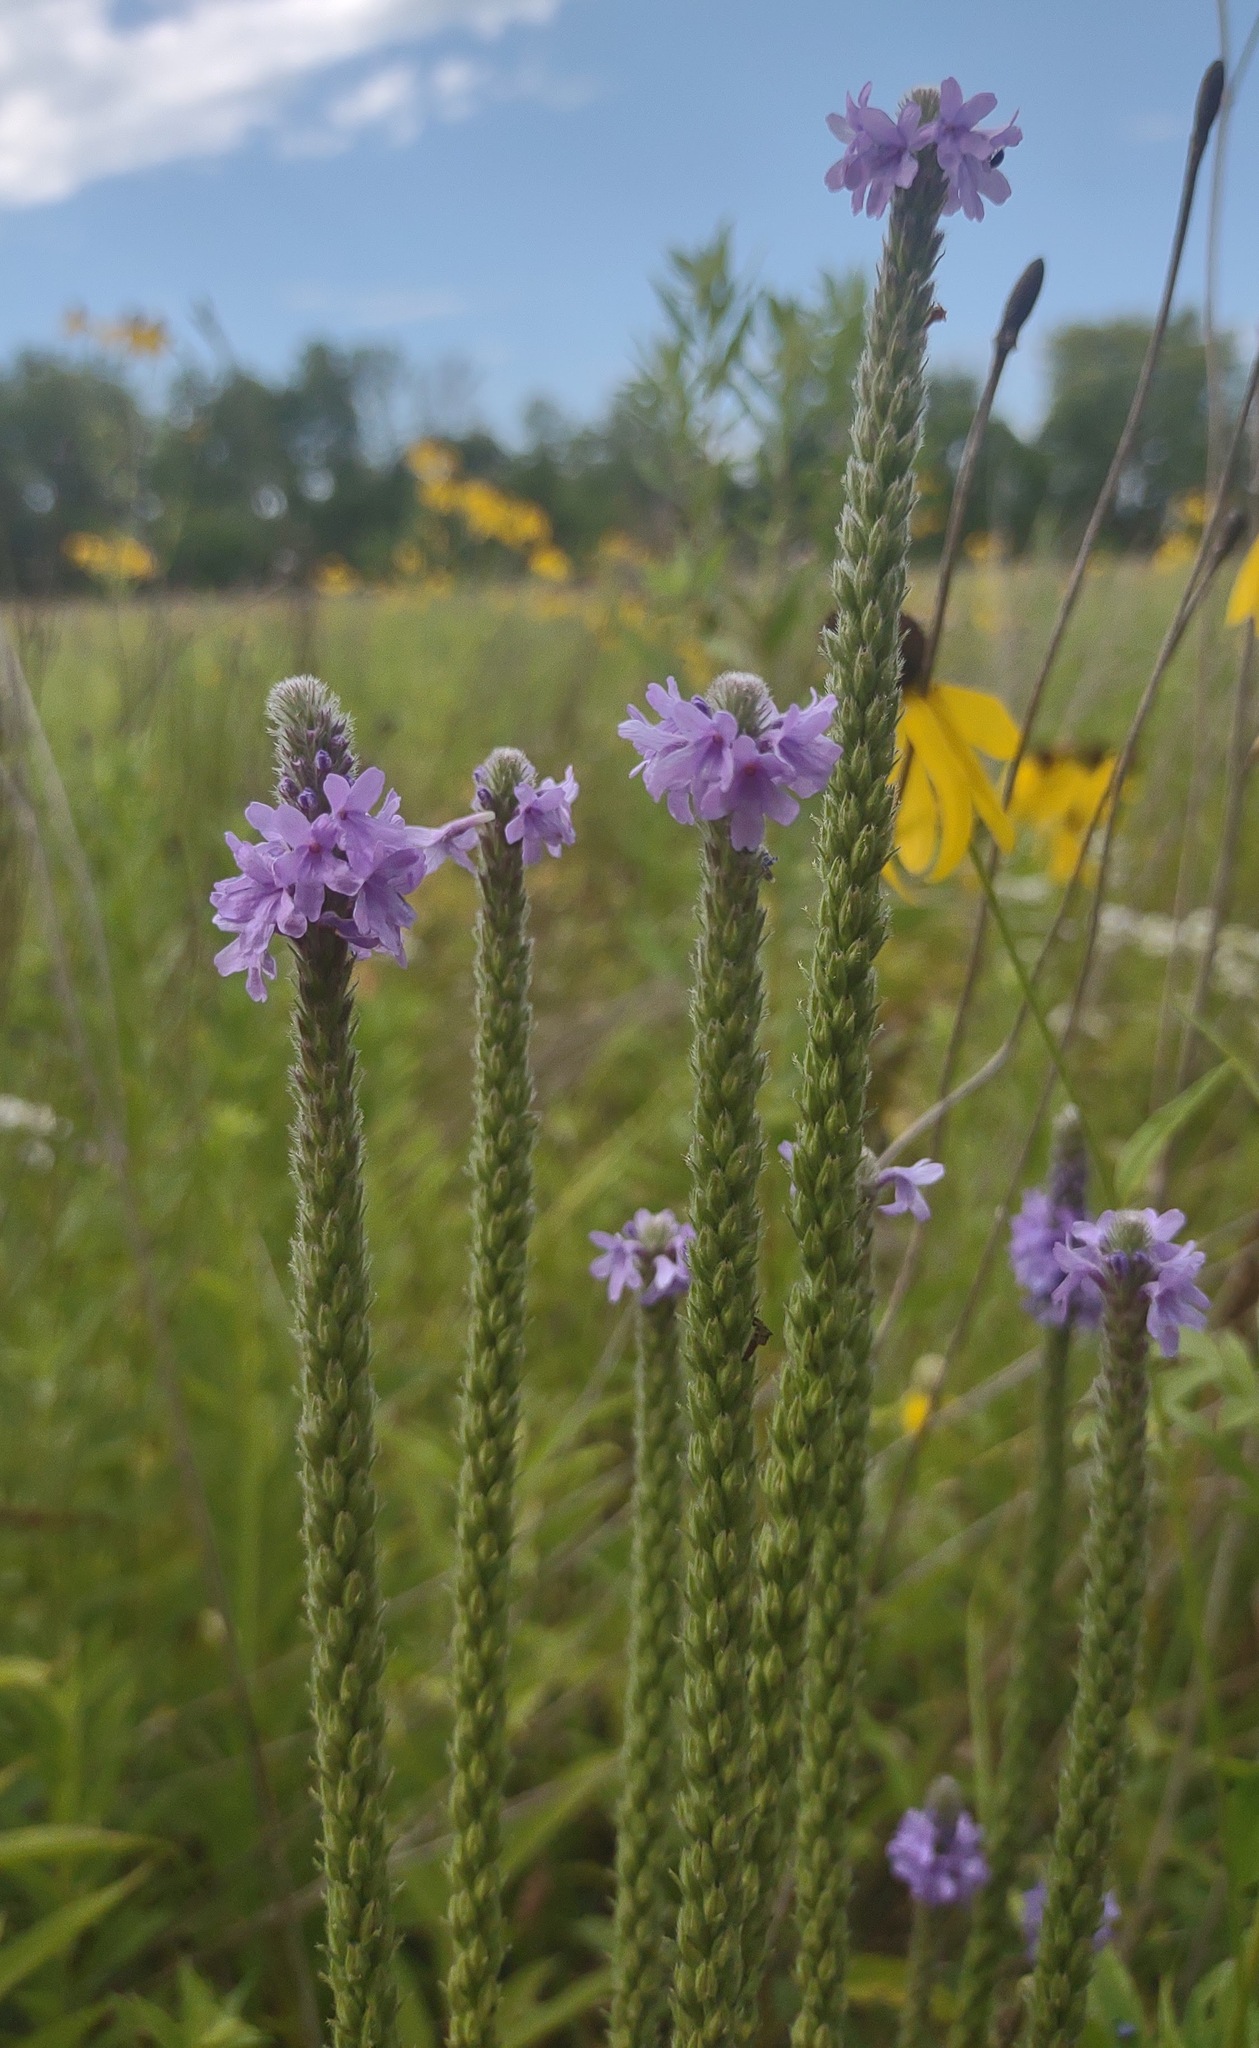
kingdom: Plantae
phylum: Tracheophyta
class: Magnoliopsida
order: Lamiales
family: Verbenaceae
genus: Verbena
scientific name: Verbena stricta
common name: Hoary vervain
